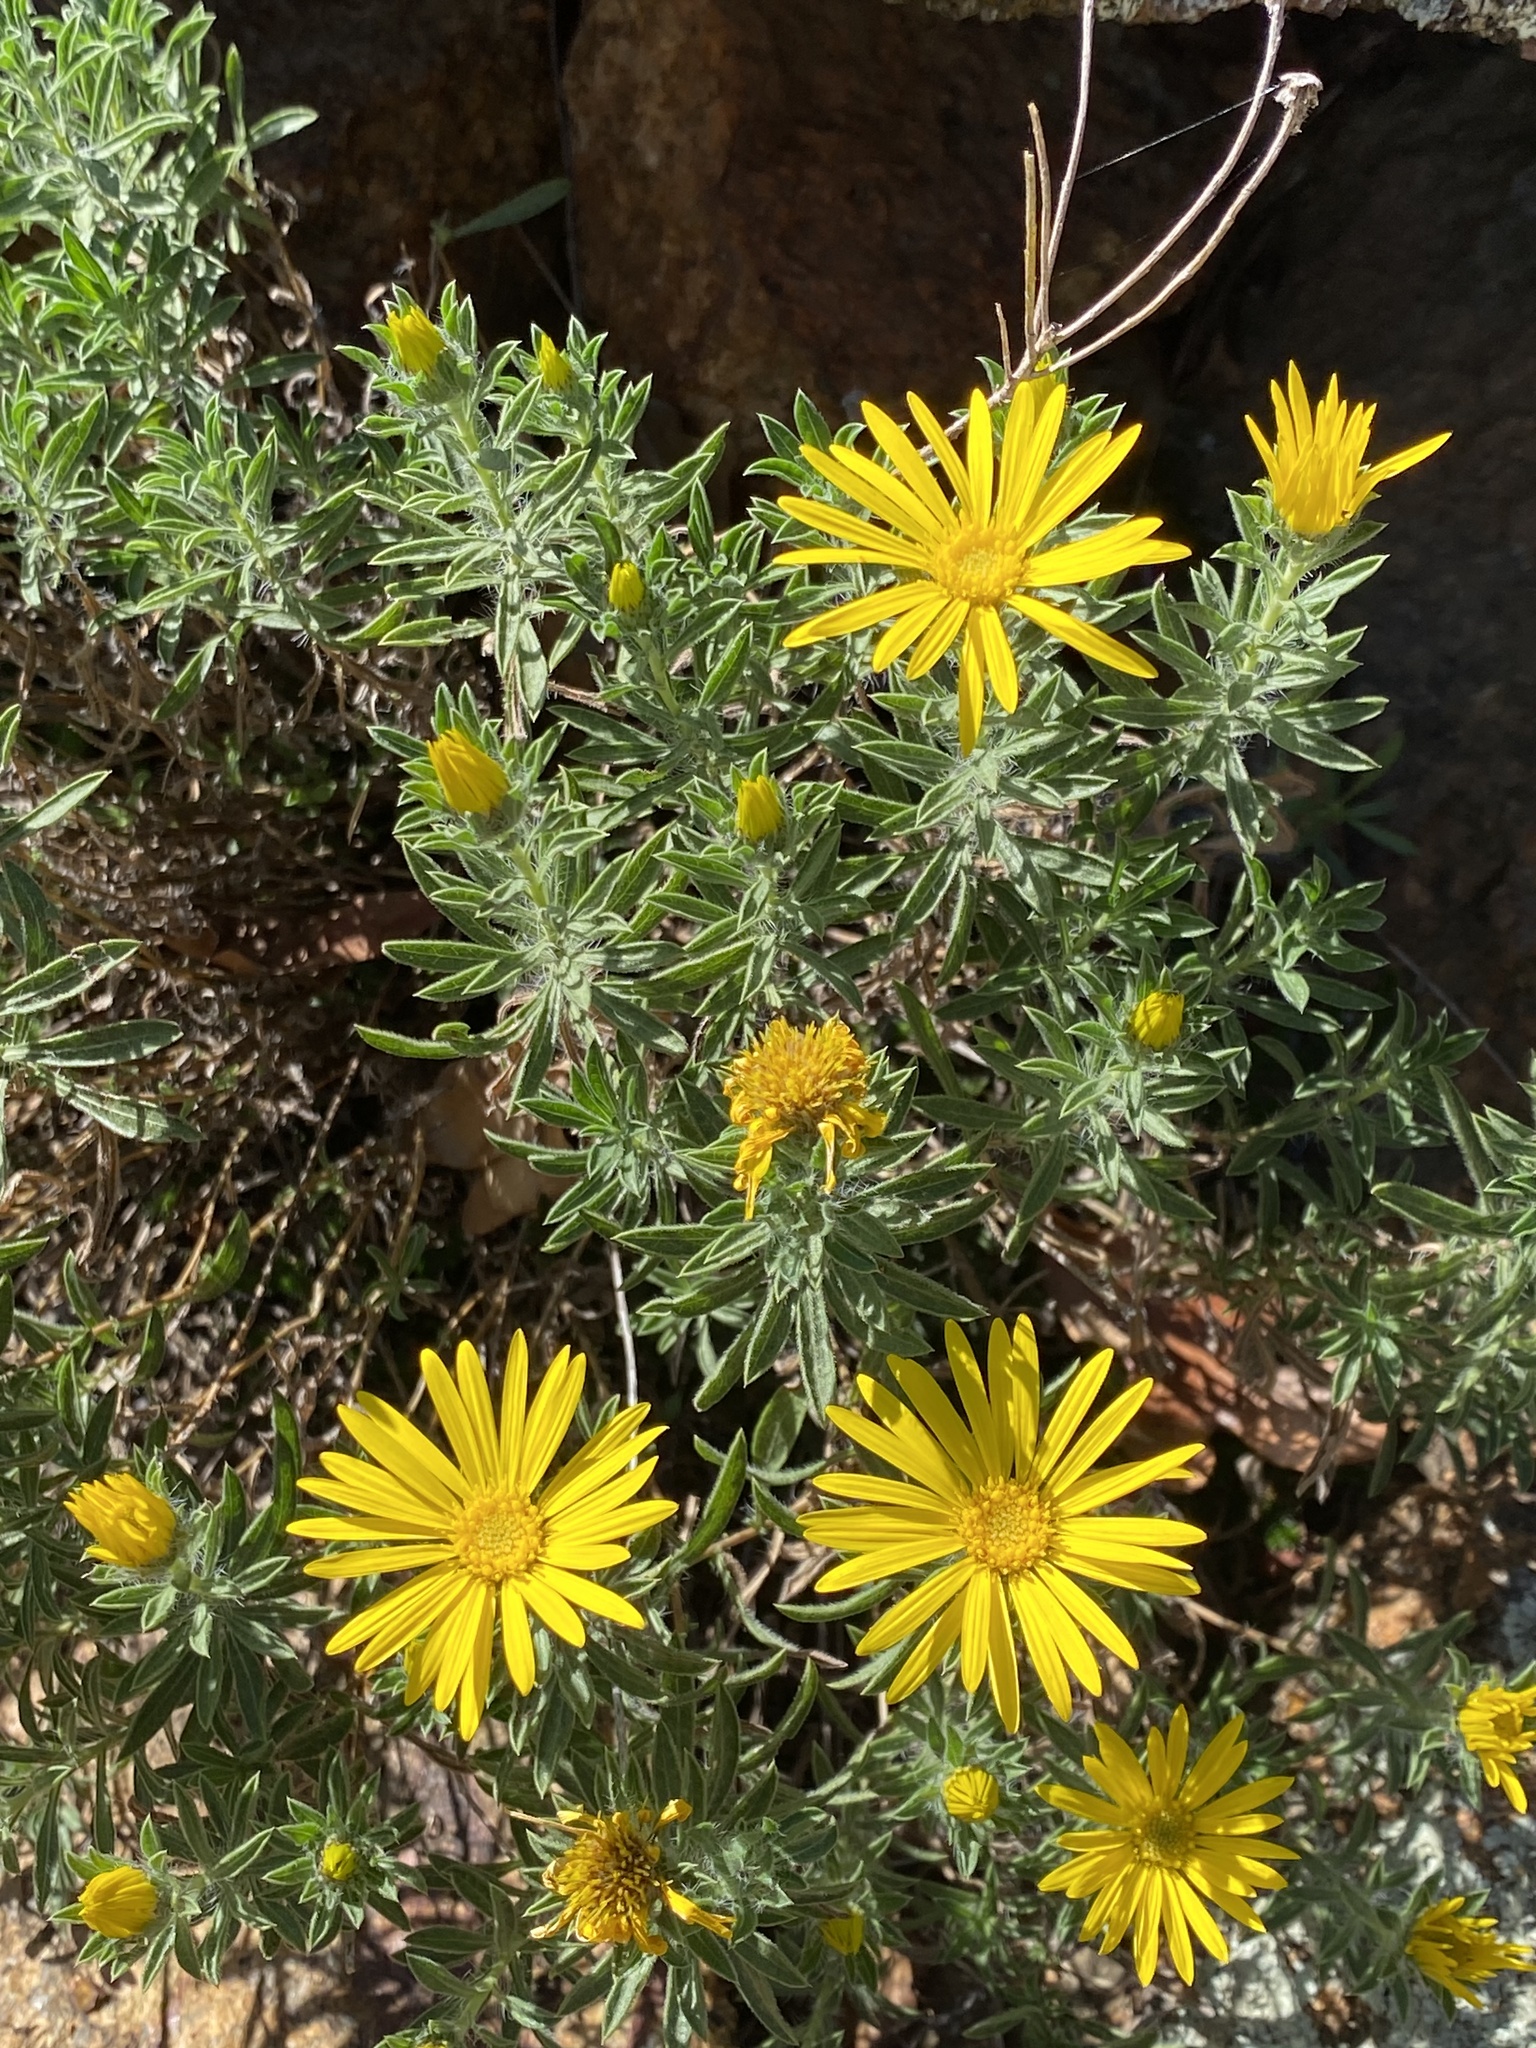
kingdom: Plantae
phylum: Tracheophyta
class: Magnoliopsida
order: Asterales
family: Asteraceae
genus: Heterotheca
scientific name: Heterotheca stenophylla
